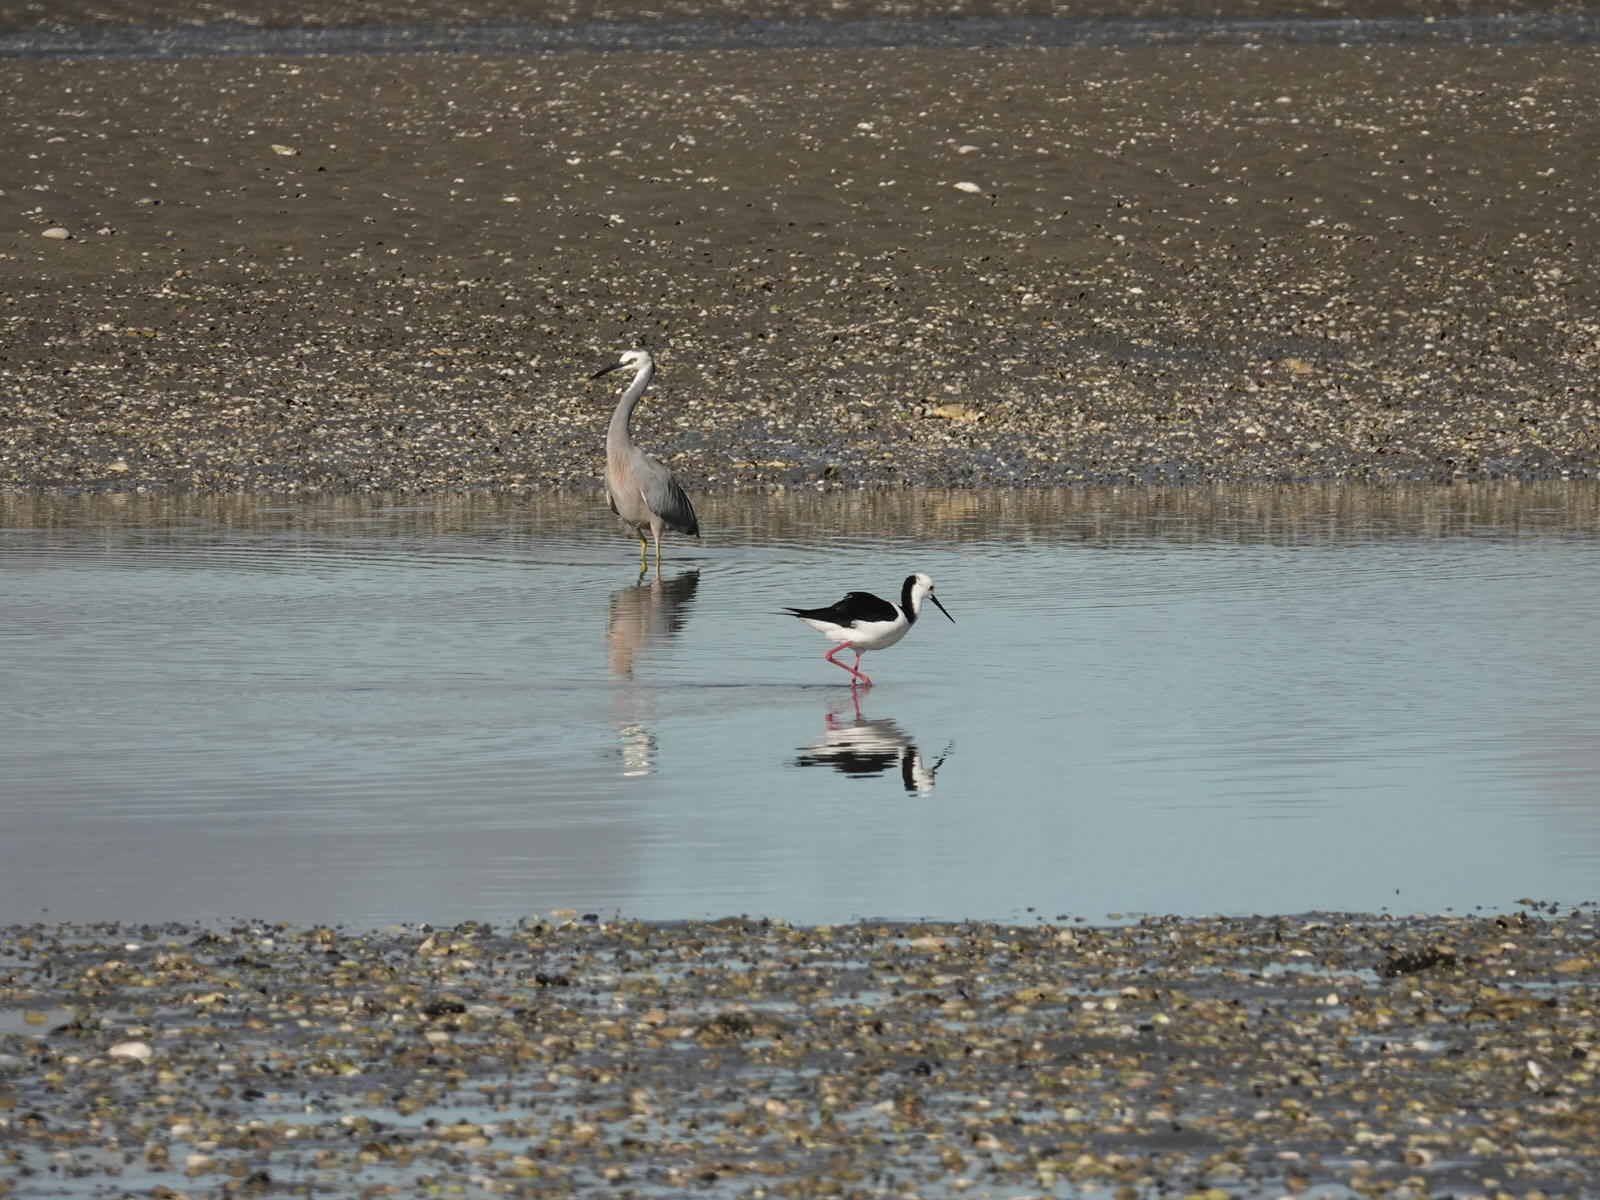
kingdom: Animalia
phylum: Chordata
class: Aves
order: Pelecaniformes
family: Ardeidae
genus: Egretta
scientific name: Egretta novaehollandiae
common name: White-faced heron
